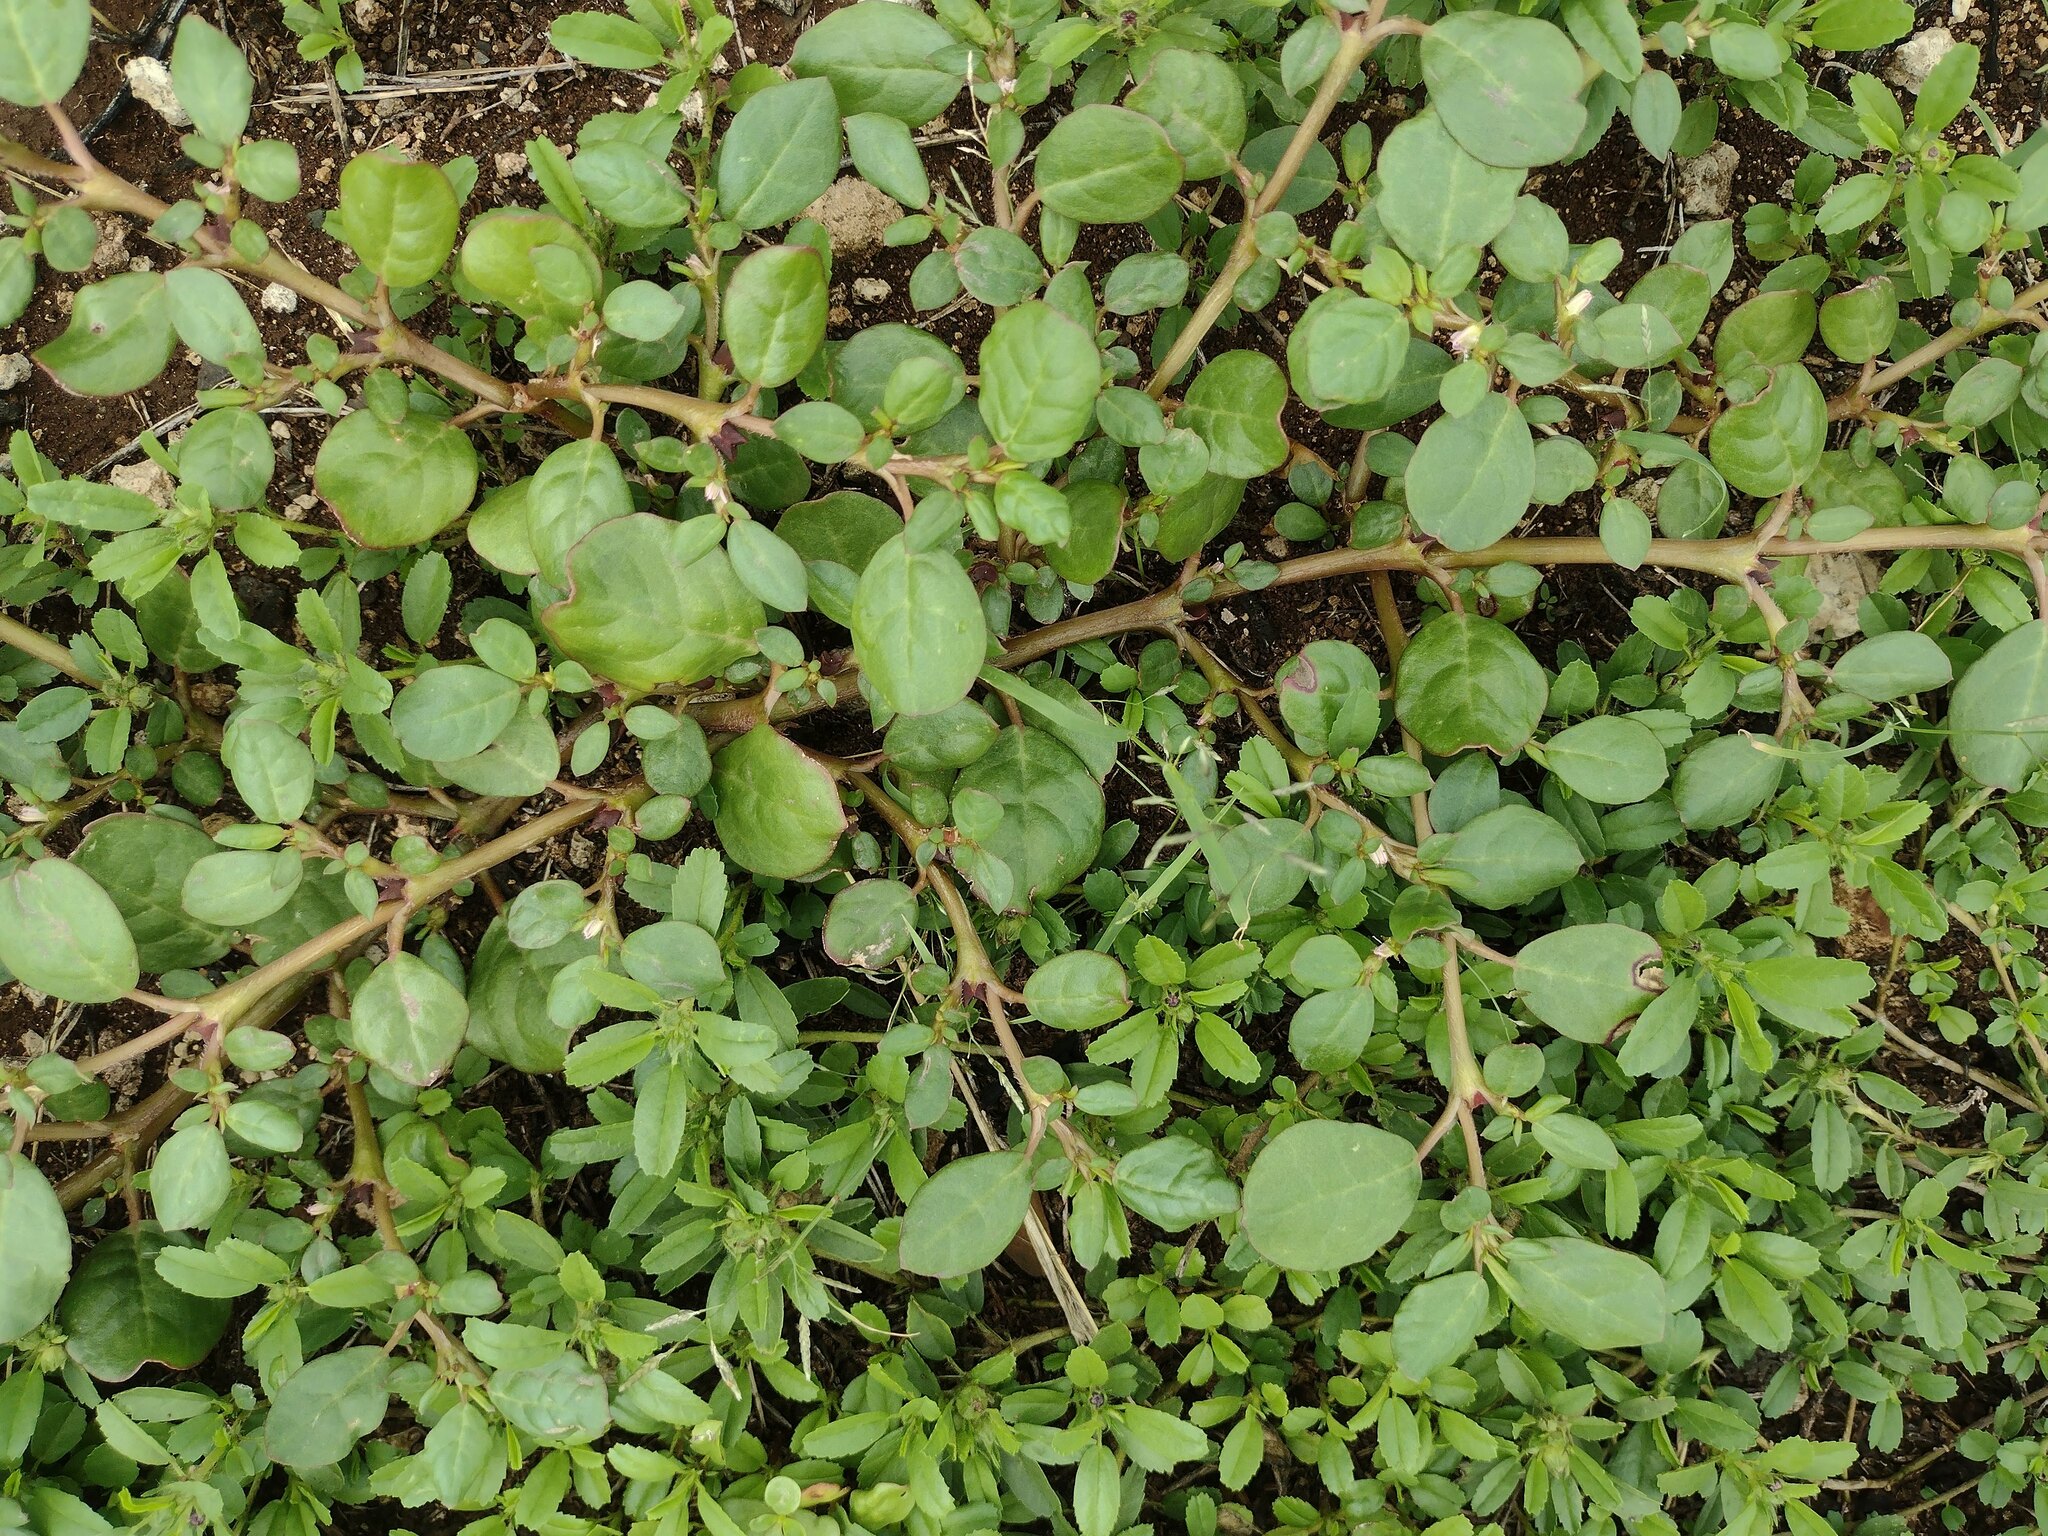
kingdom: Plantae
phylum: Tracheophyta
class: Magnoliopsida
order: Caryophyllales
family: Aizoaceae
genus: Trianthema
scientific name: Trianthema portulacastrum
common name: Desert horsepurslane
